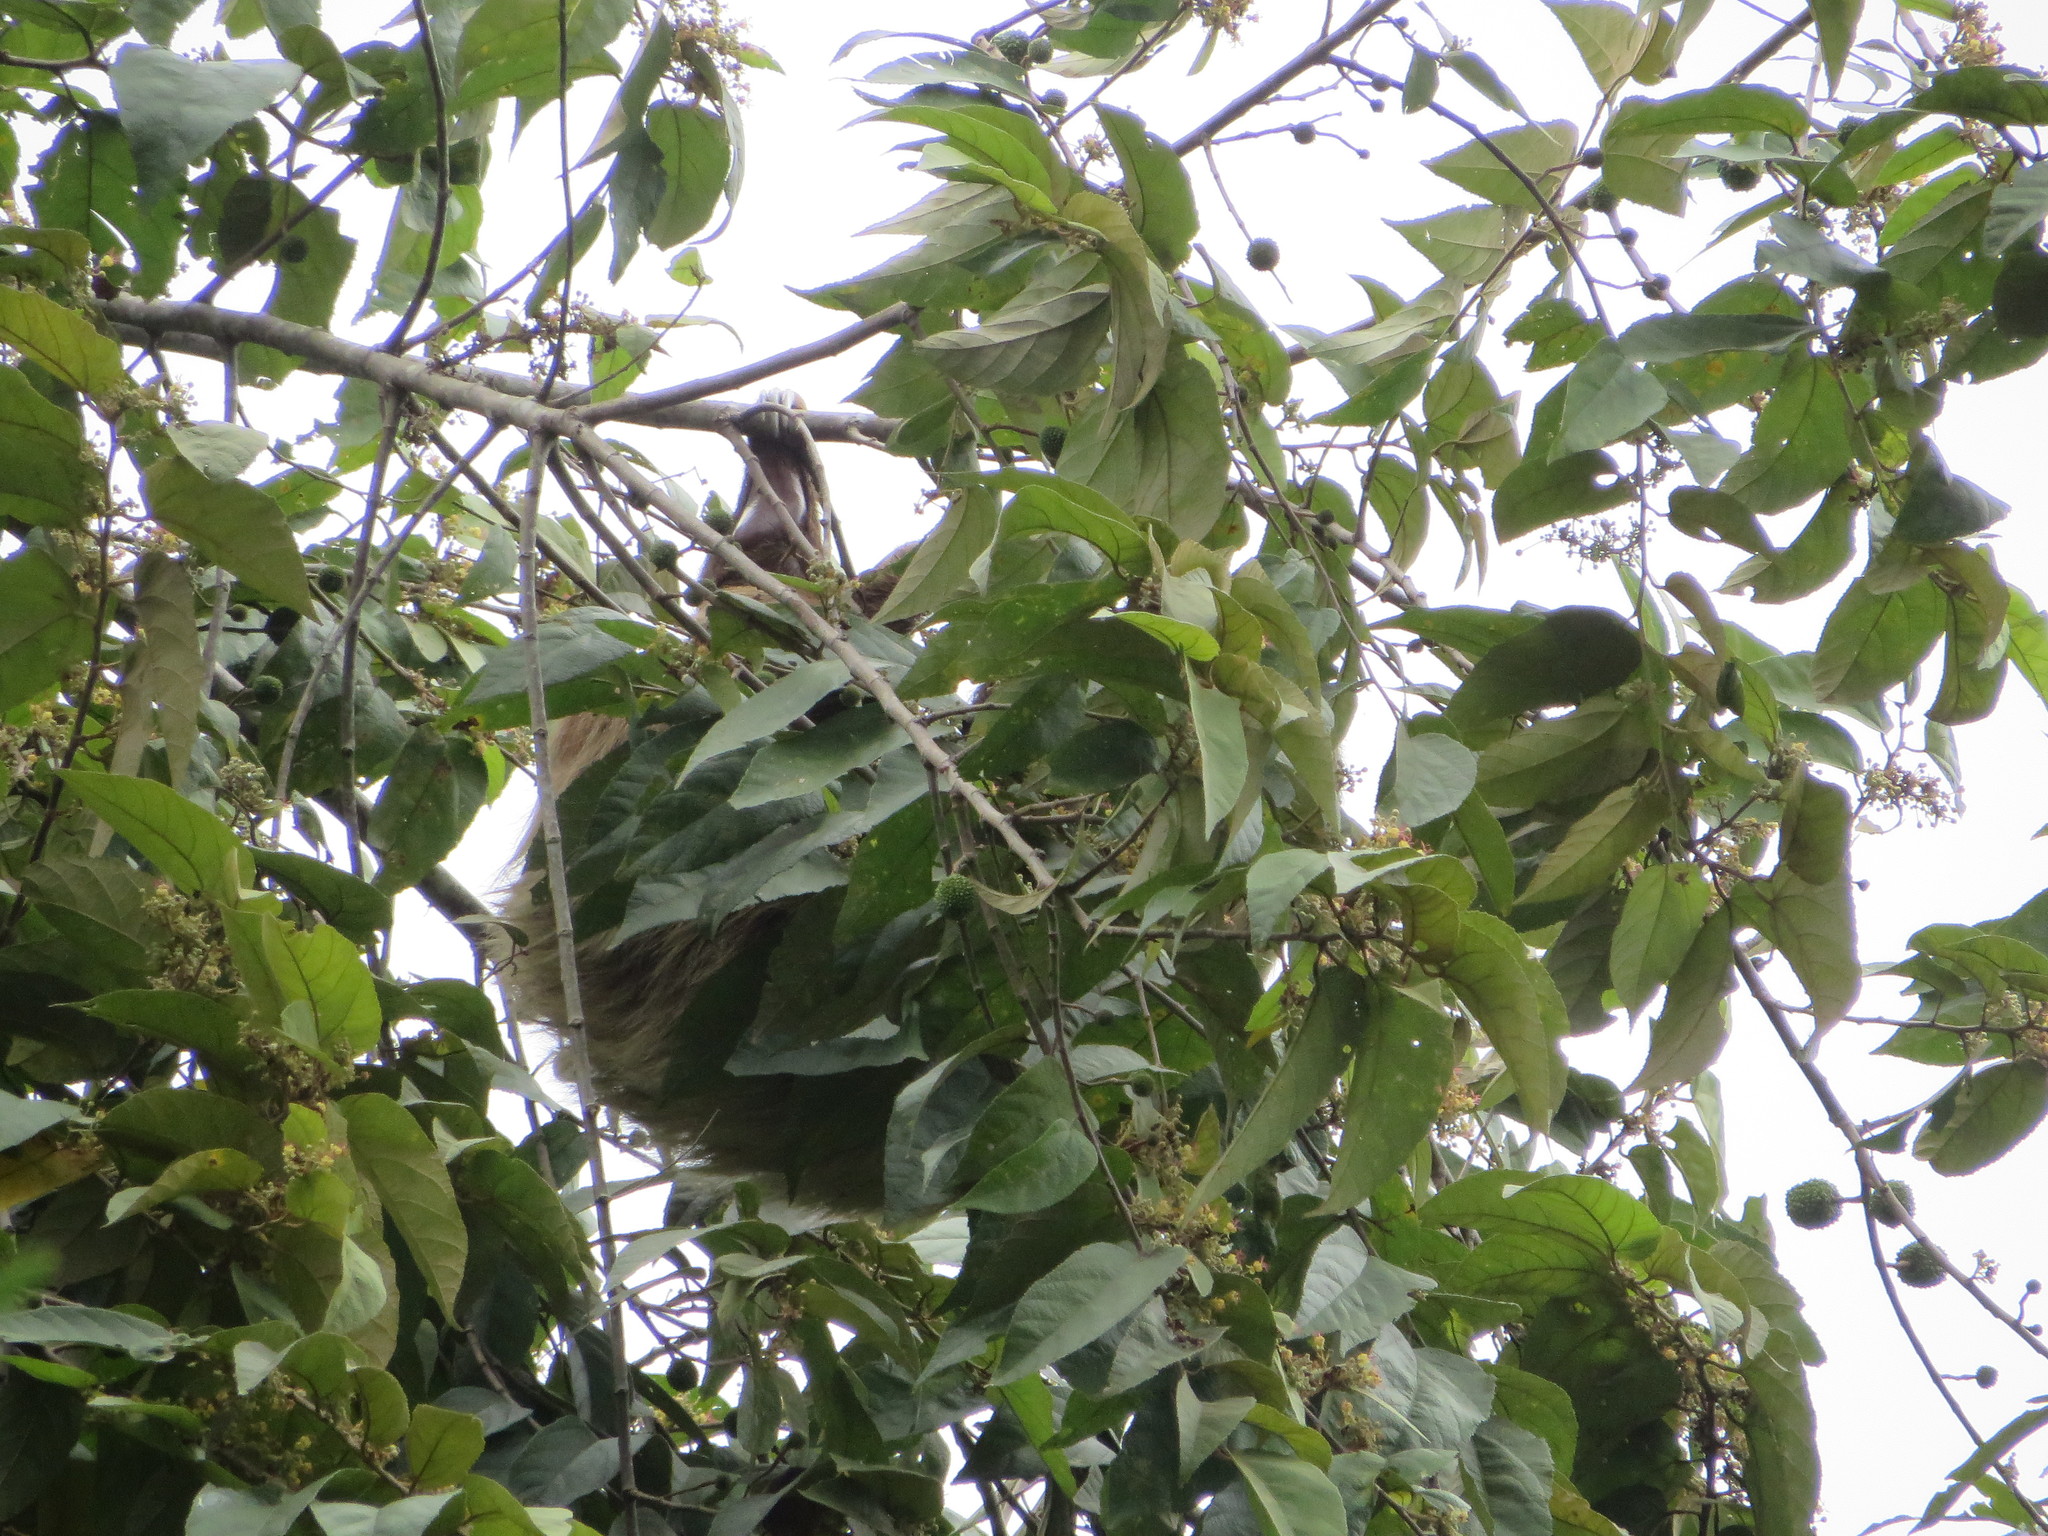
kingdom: Animalia
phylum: Chordata
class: Mammalia
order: Pilosa
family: Megalonychidae
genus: Choloepus
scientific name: Choloepus hoffmanni
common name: Hoffmann's two-toed sloth
